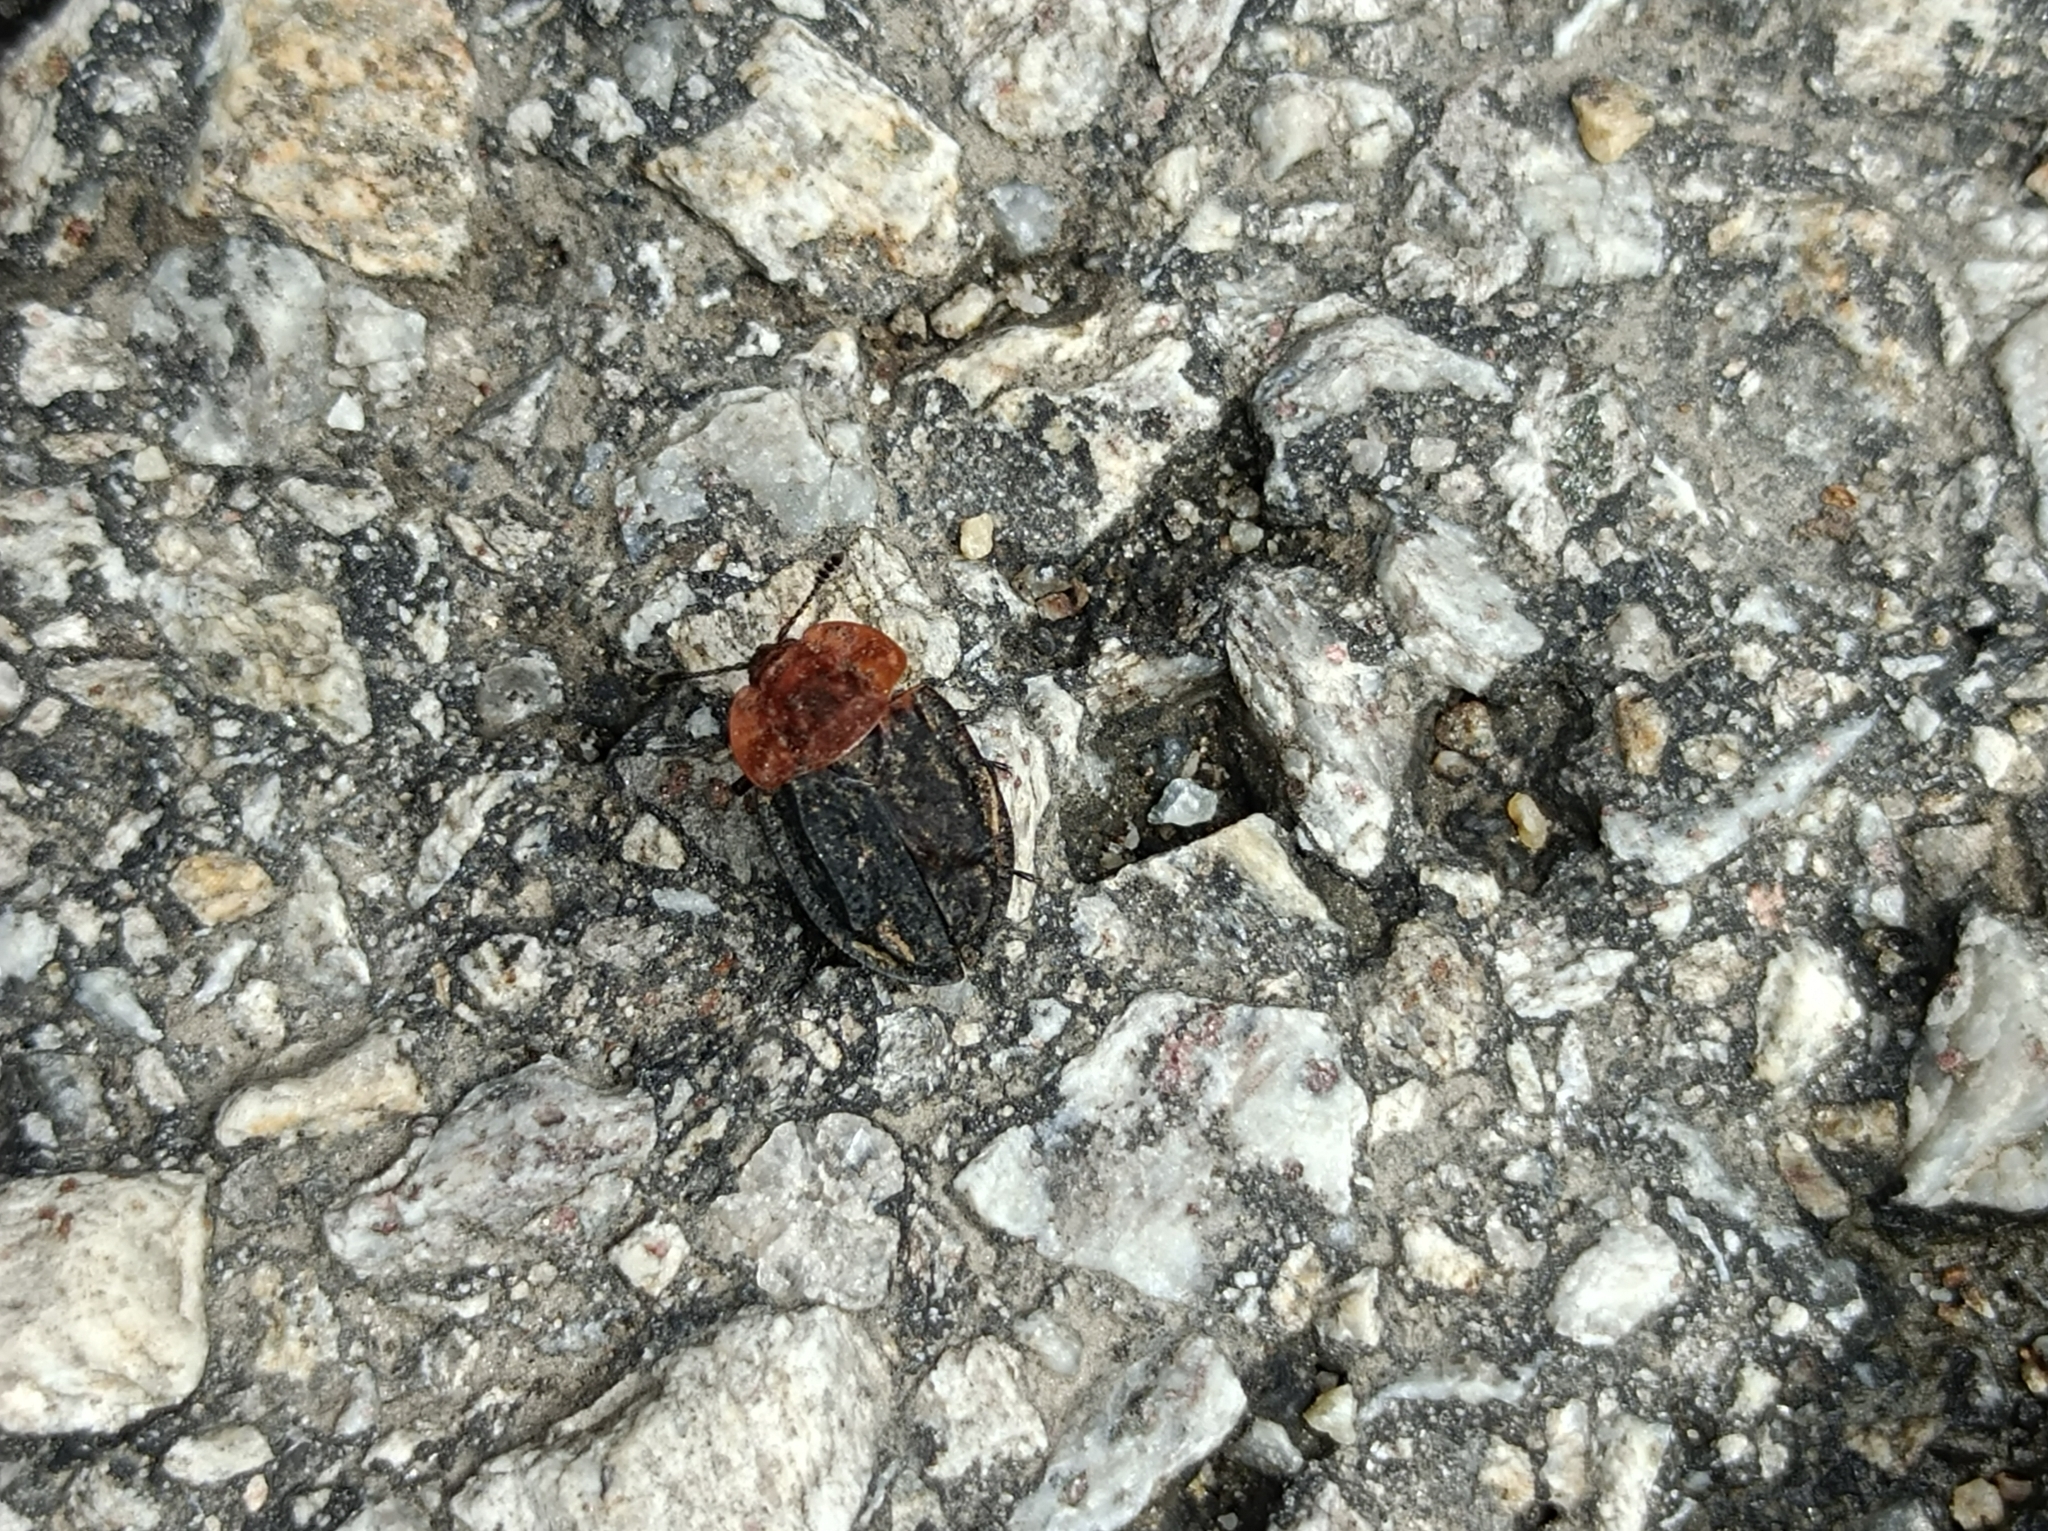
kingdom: Animalia
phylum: Arthropoda
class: Insecta
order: Coleoptera
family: Staphylinidae
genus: Oiceoptoma
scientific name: Oiceoptoma thoracicum
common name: Red-breasted carrion beetle
